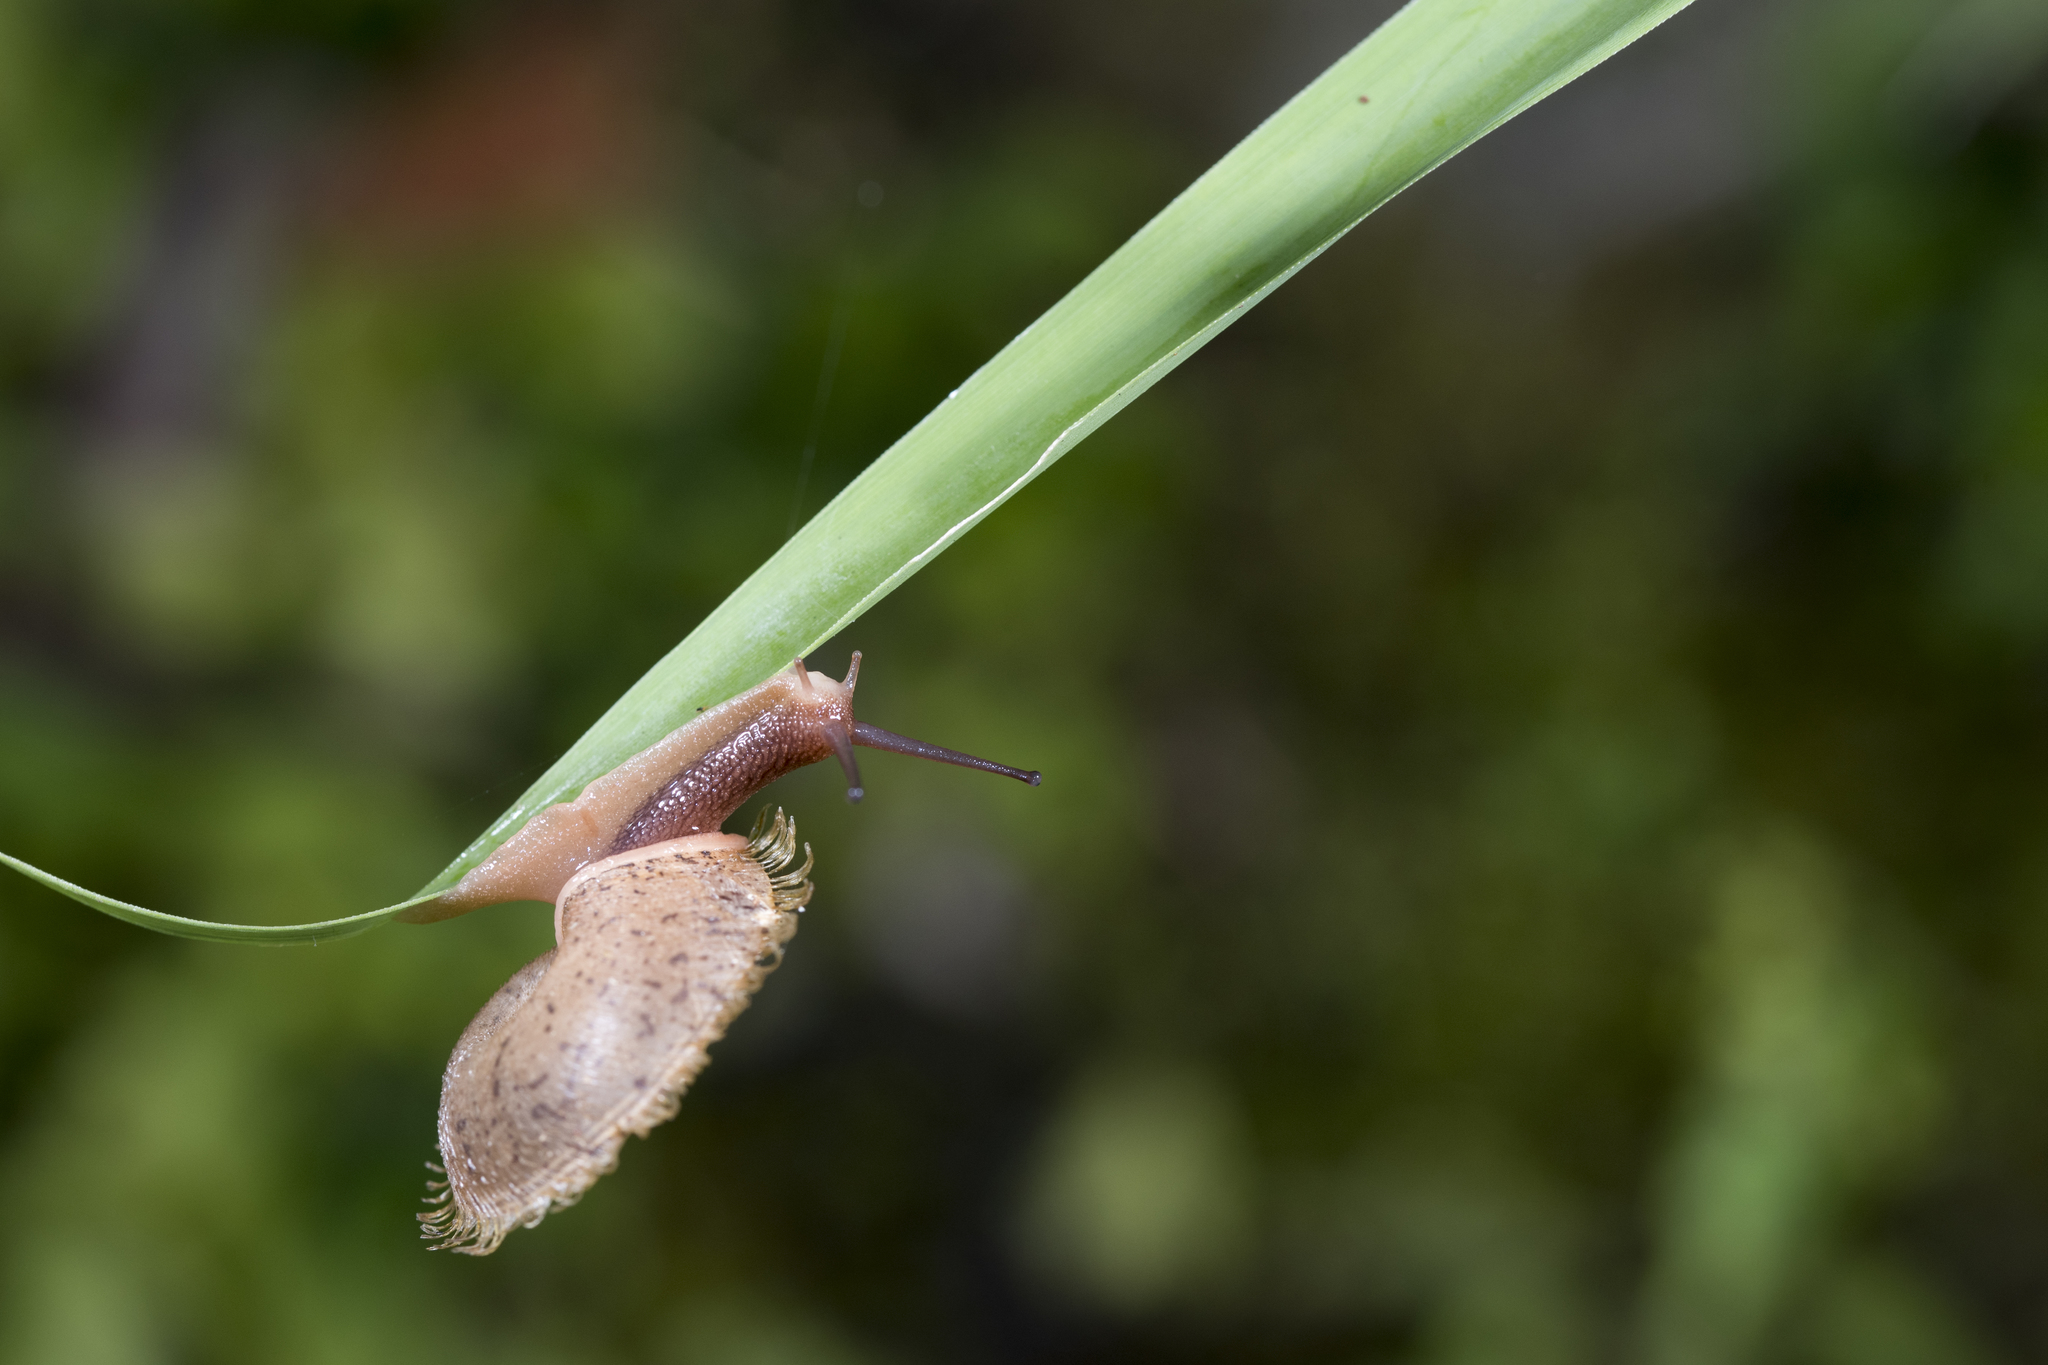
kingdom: Animalia
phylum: Mollusca
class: Gastropoda
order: Stylommatophora
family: Camaenidae
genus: Plectotropis
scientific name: Plectotropis mackensii
